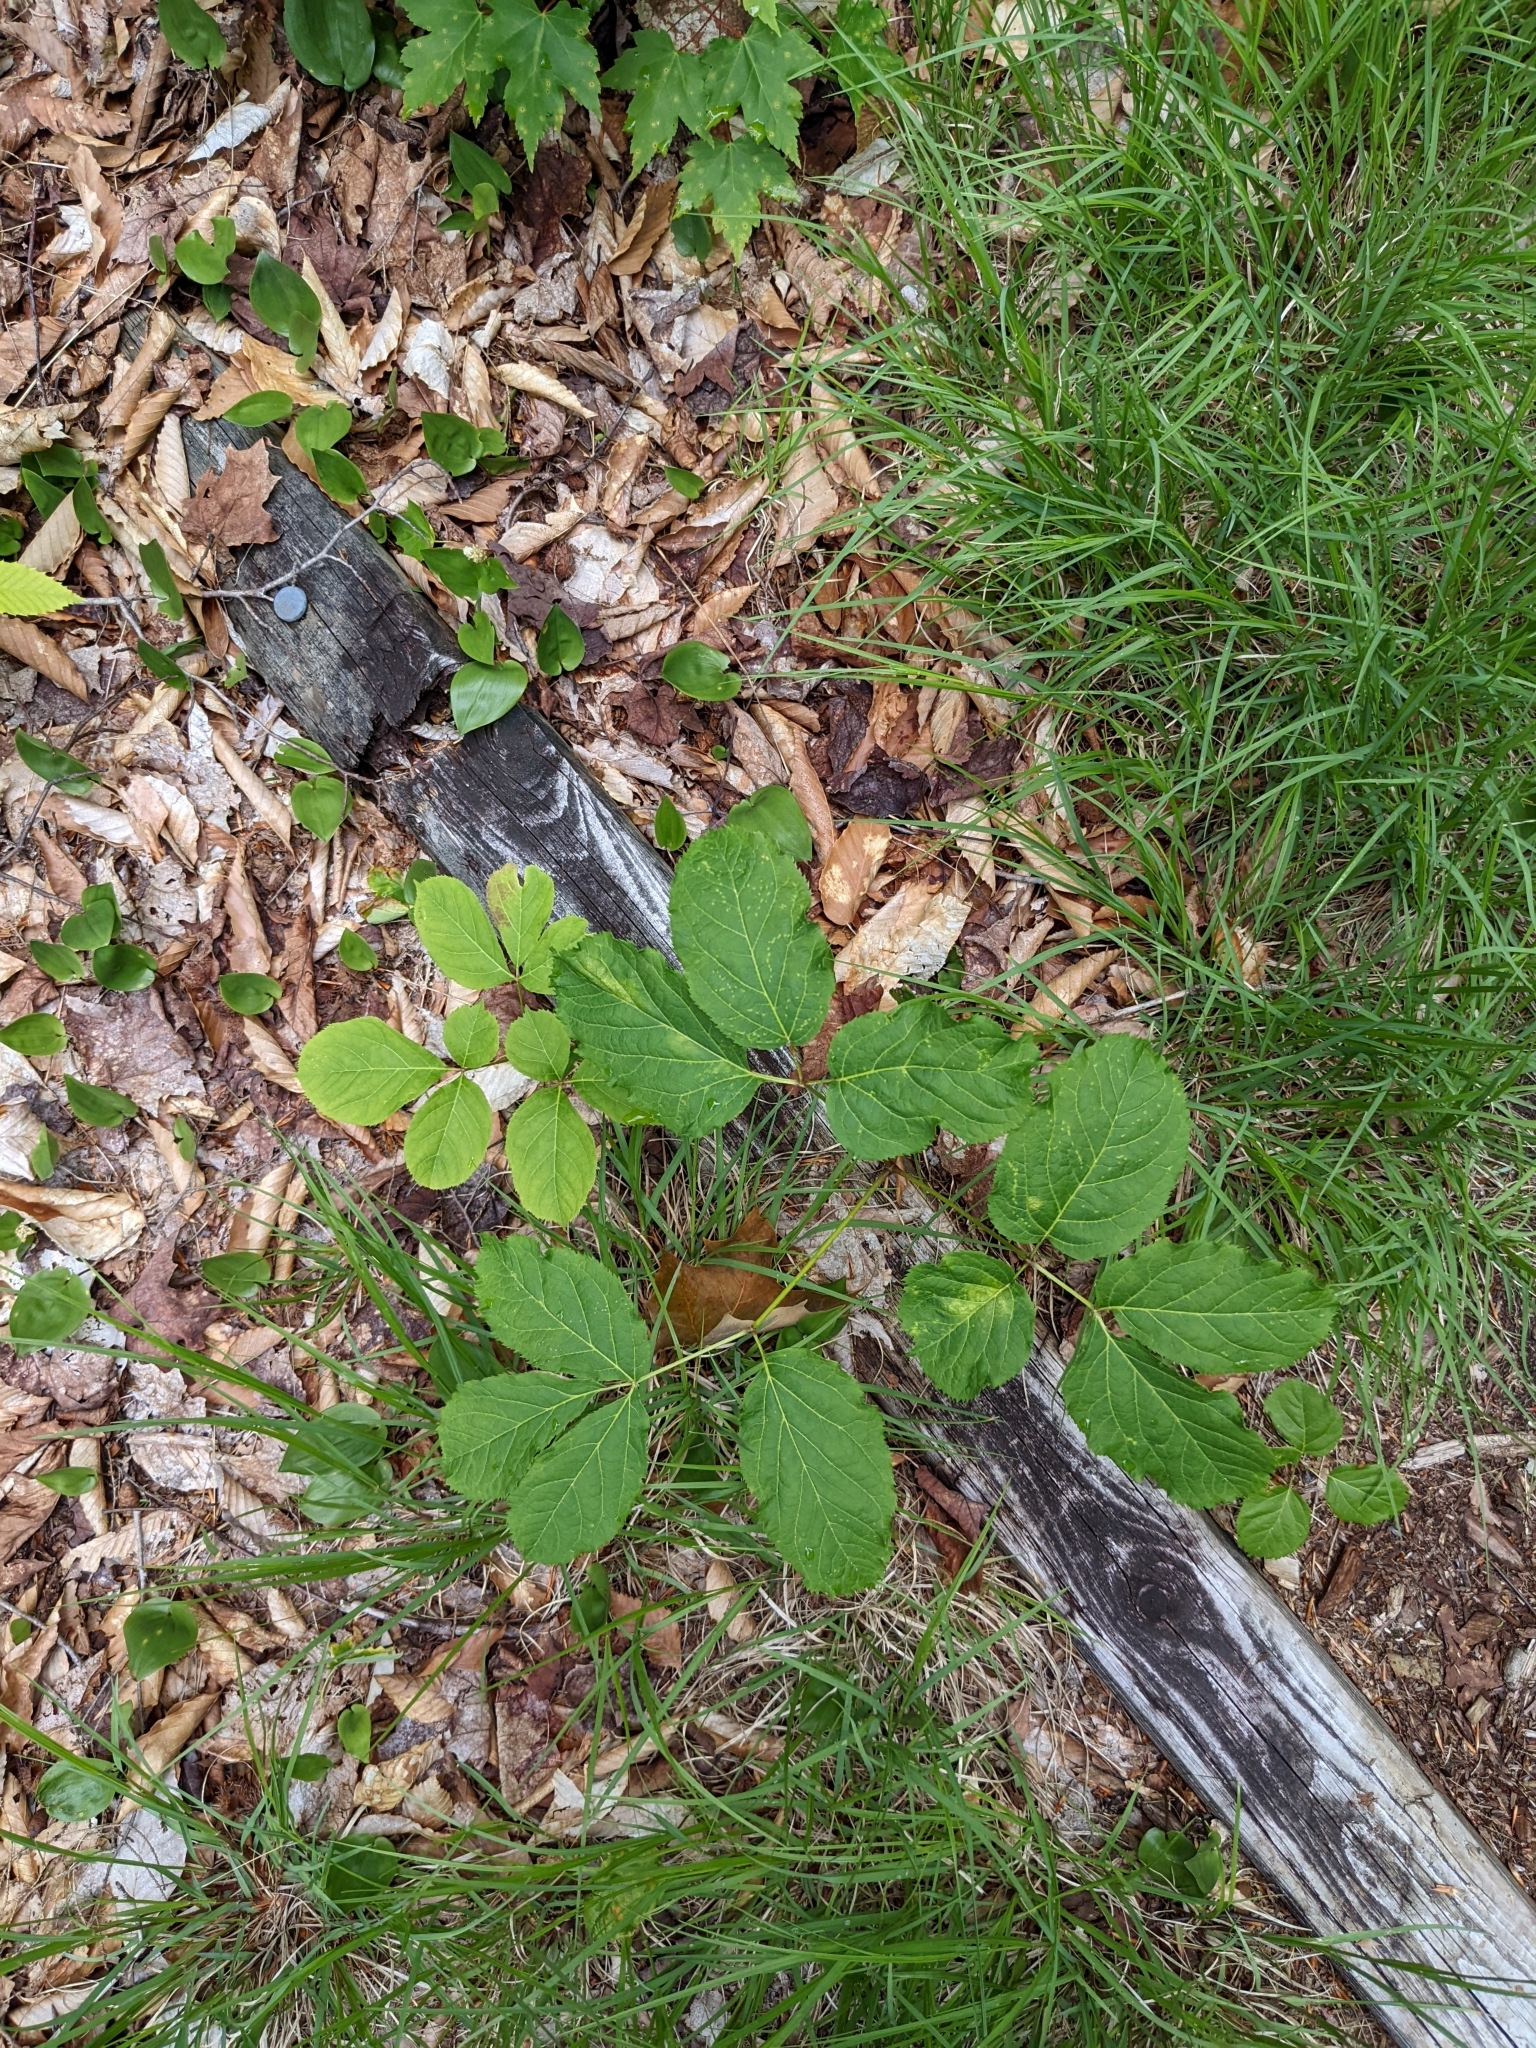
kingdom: Plantae
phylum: Tracheophyta
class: Magnoliopsida
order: Apiales
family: Araliaceae
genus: Aralia
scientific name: Aralia nudicaulis
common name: Wild sarsaparilla
